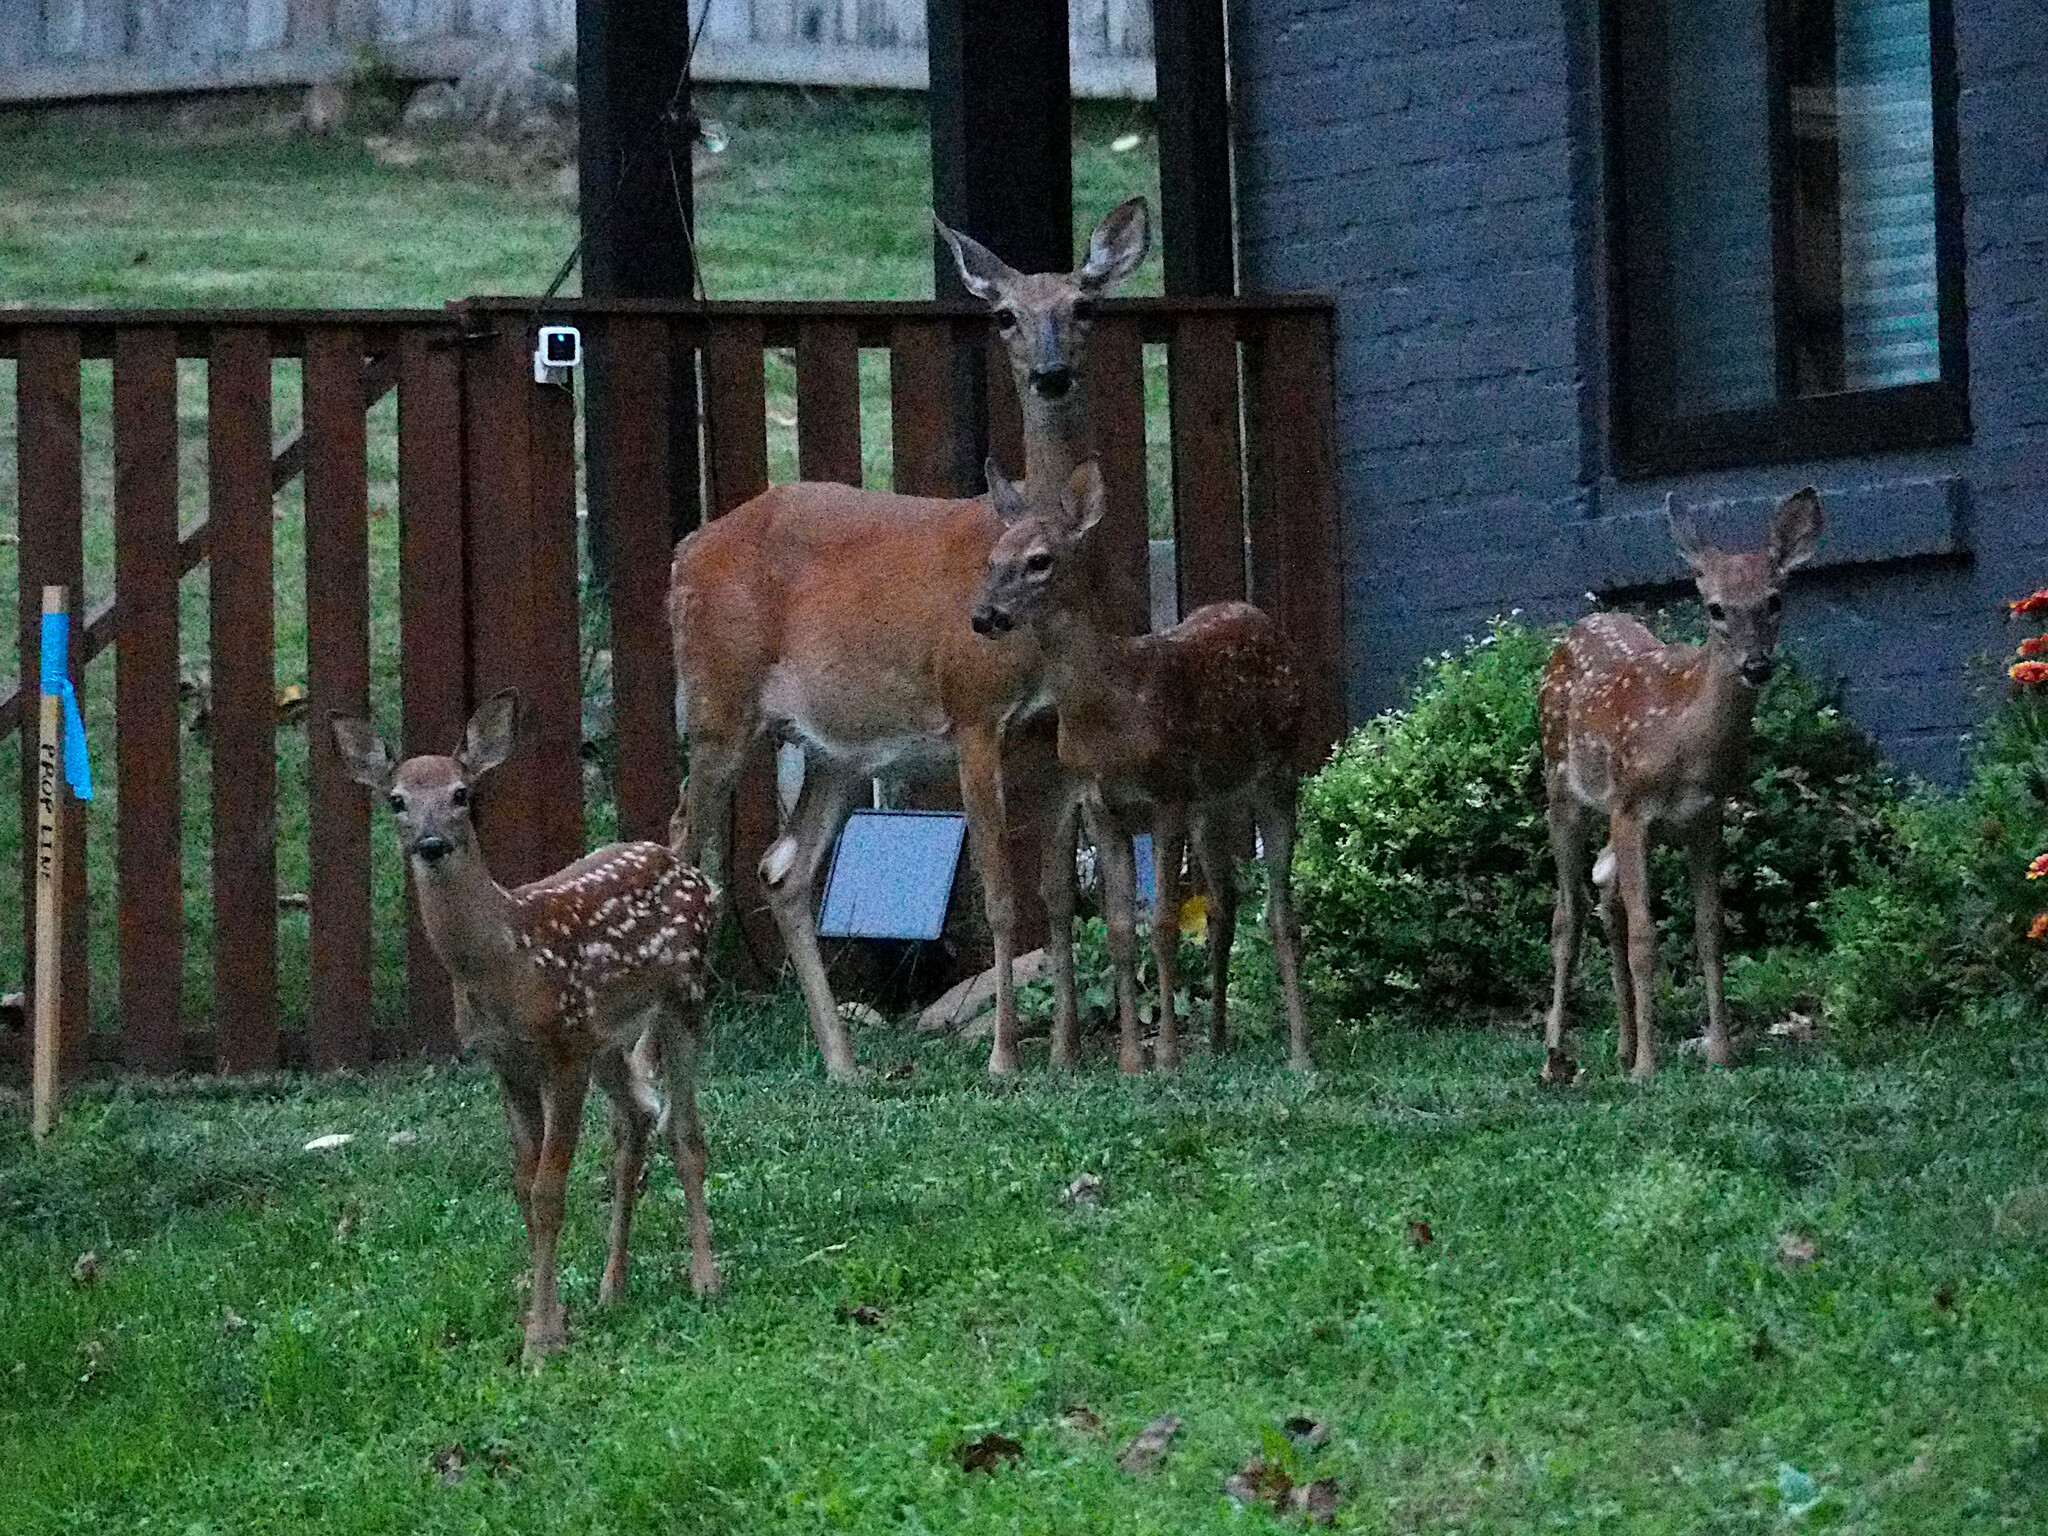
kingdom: Animalia
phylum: Chordata
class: Mammalia
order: Artiodactyla
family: Cervidae
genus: Odocoileus
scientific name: Odocoileus virginianus
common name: White-tailed deer
